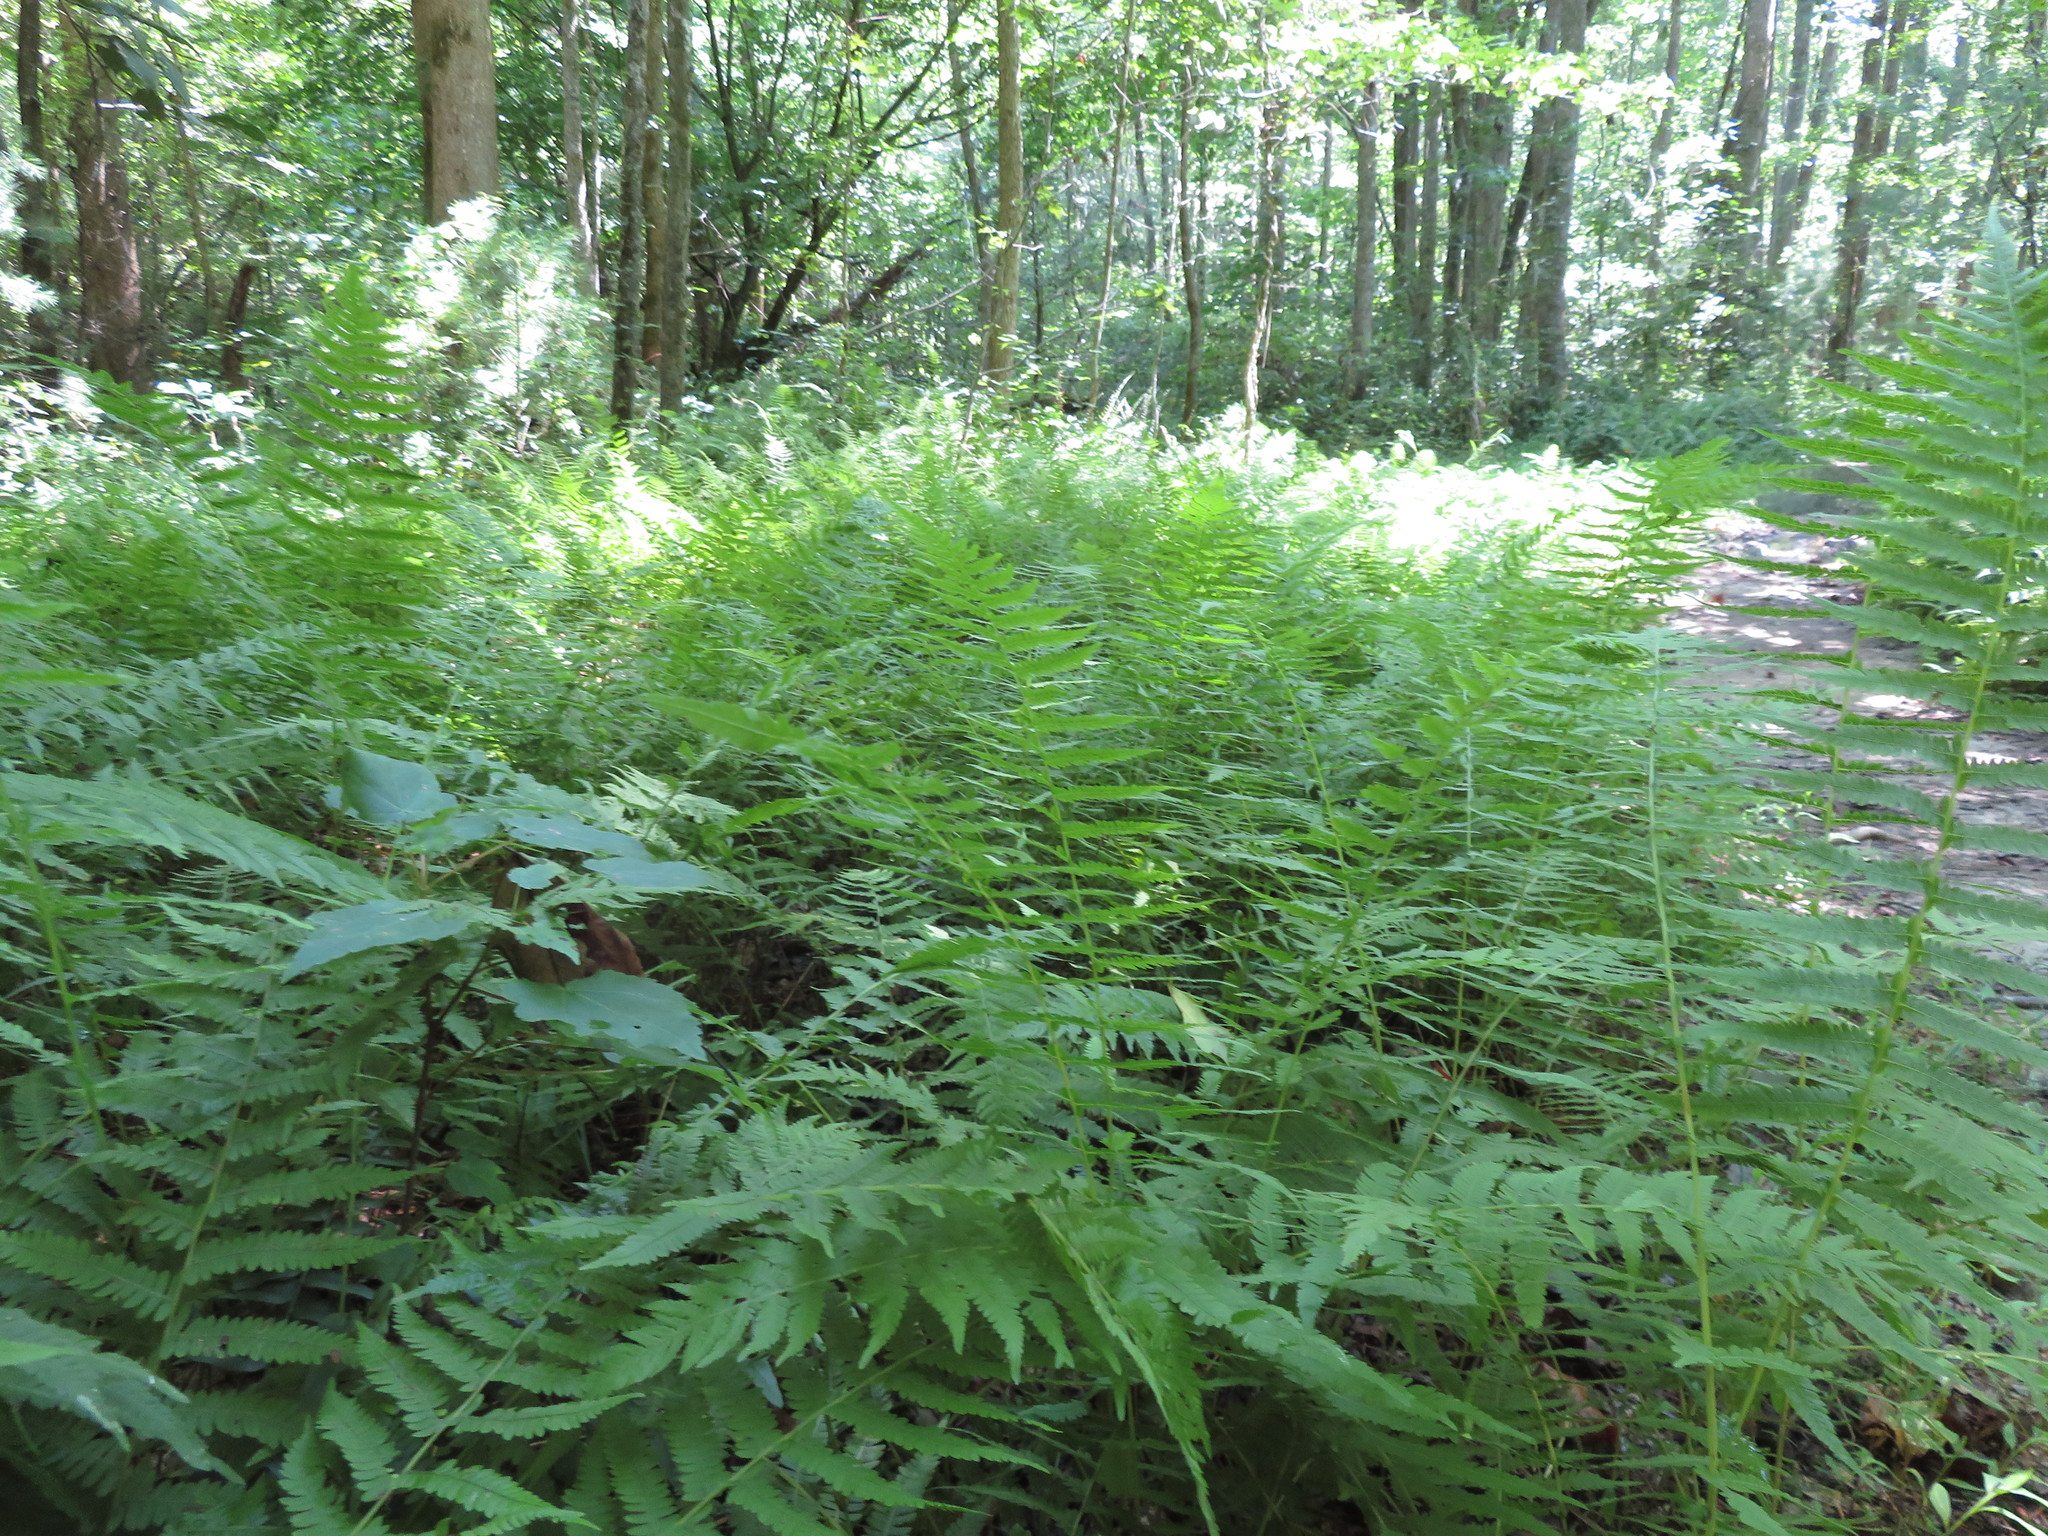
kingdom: Plantae
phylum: Tracheophyta
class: Polypodiopsida
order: Polypodiales
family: Thelypteridaceae
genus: Amauropelta
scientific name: Amauropelta noveboracensis
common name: New york fern
